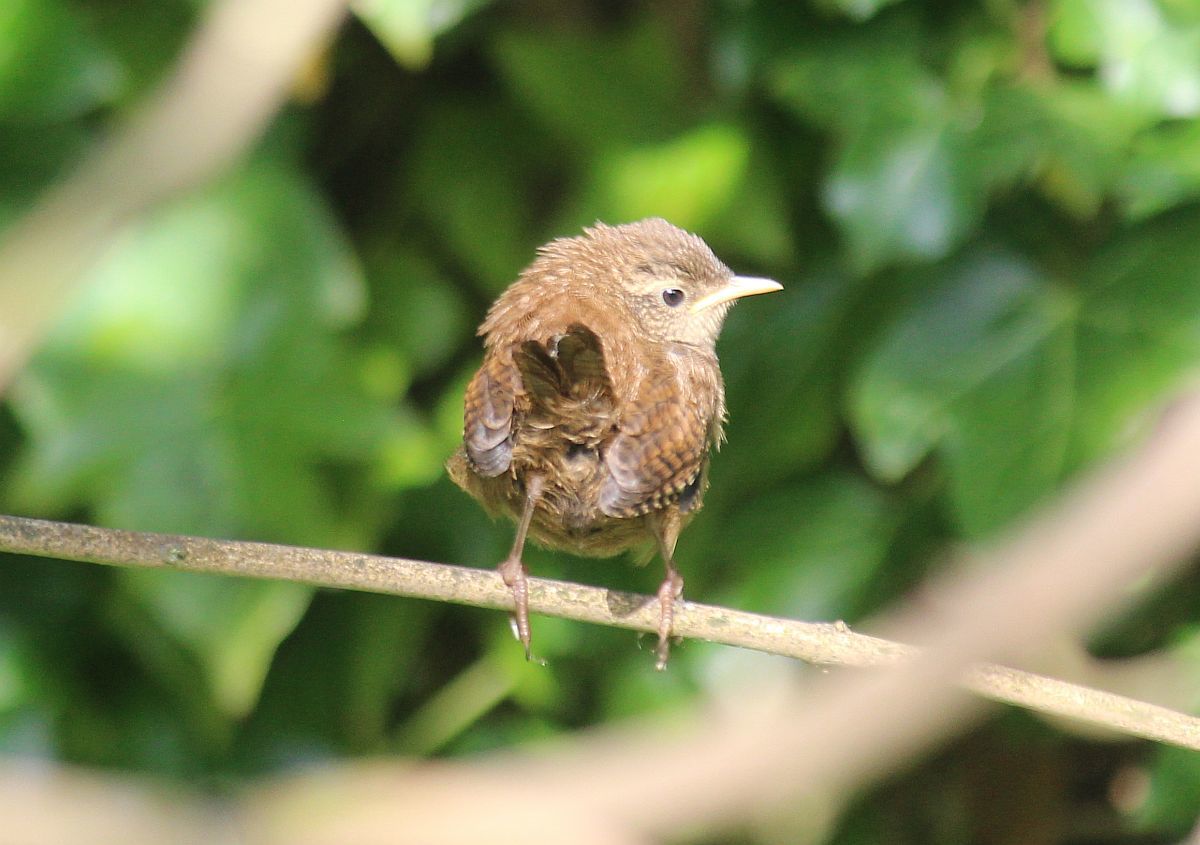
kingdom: Animalia
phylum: Chordata
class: Aves
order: Passeriformes
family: Troglodytidae
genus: Troglodytes
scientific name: Troglodytes troglodytes
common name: Eurasian wren
